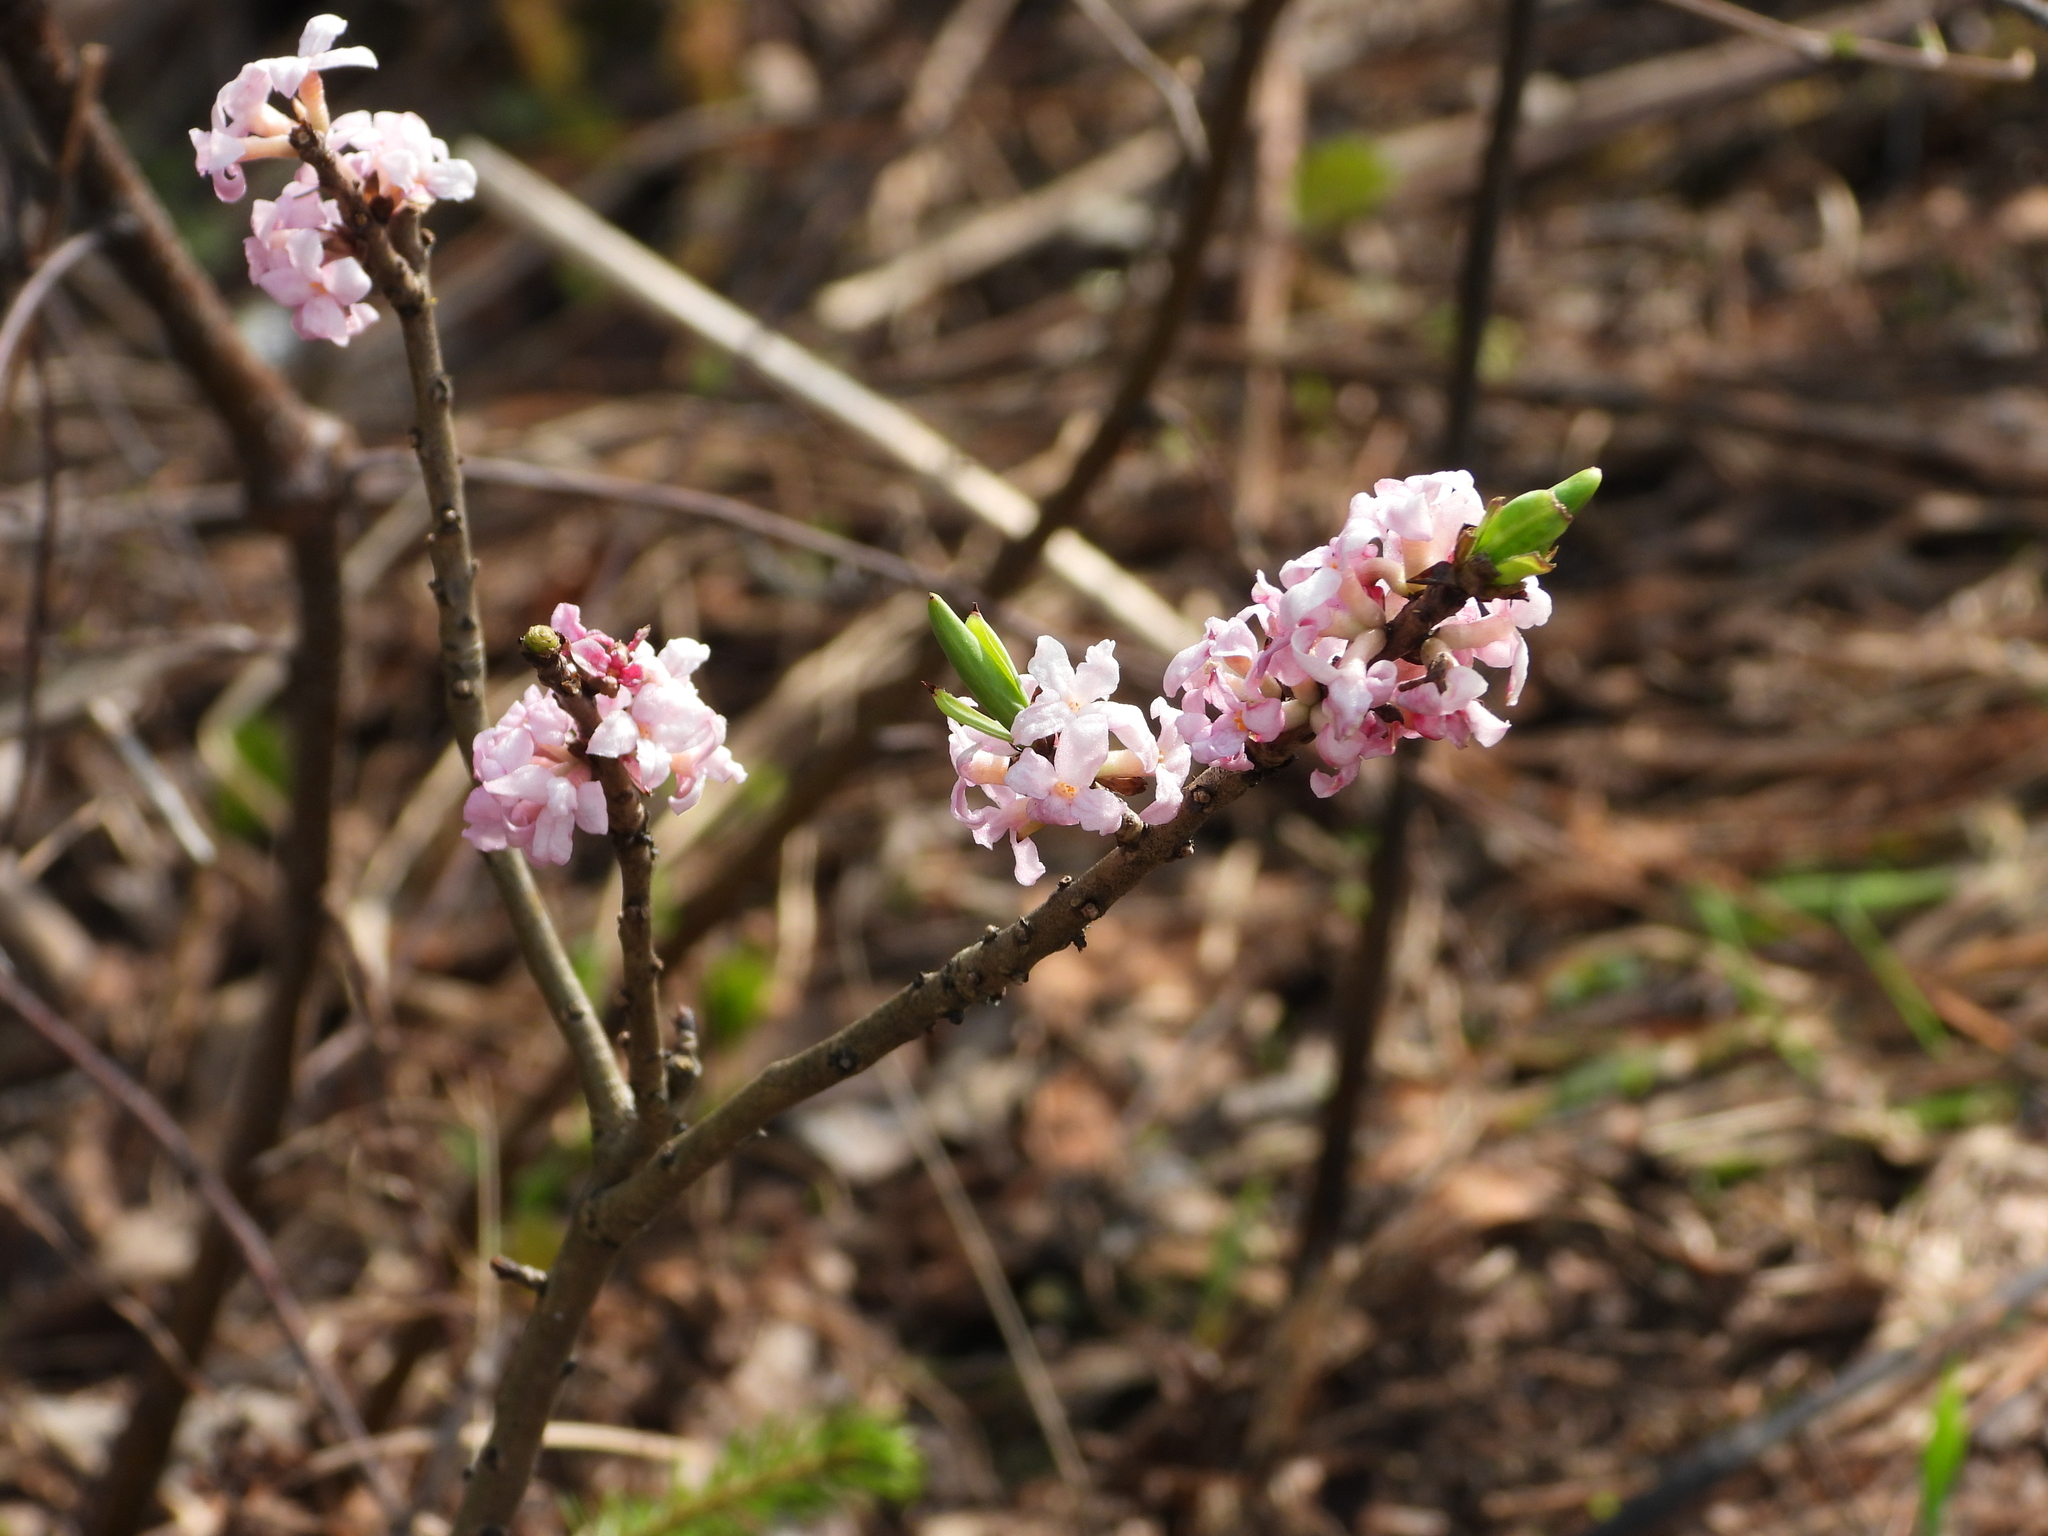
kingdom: Plantae
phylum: Tracheophyta
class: Magnoliopsida
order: Malvales
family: Thymelaeaceae
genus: Daphne
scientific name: Daphne mezereum
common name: Mezereon
